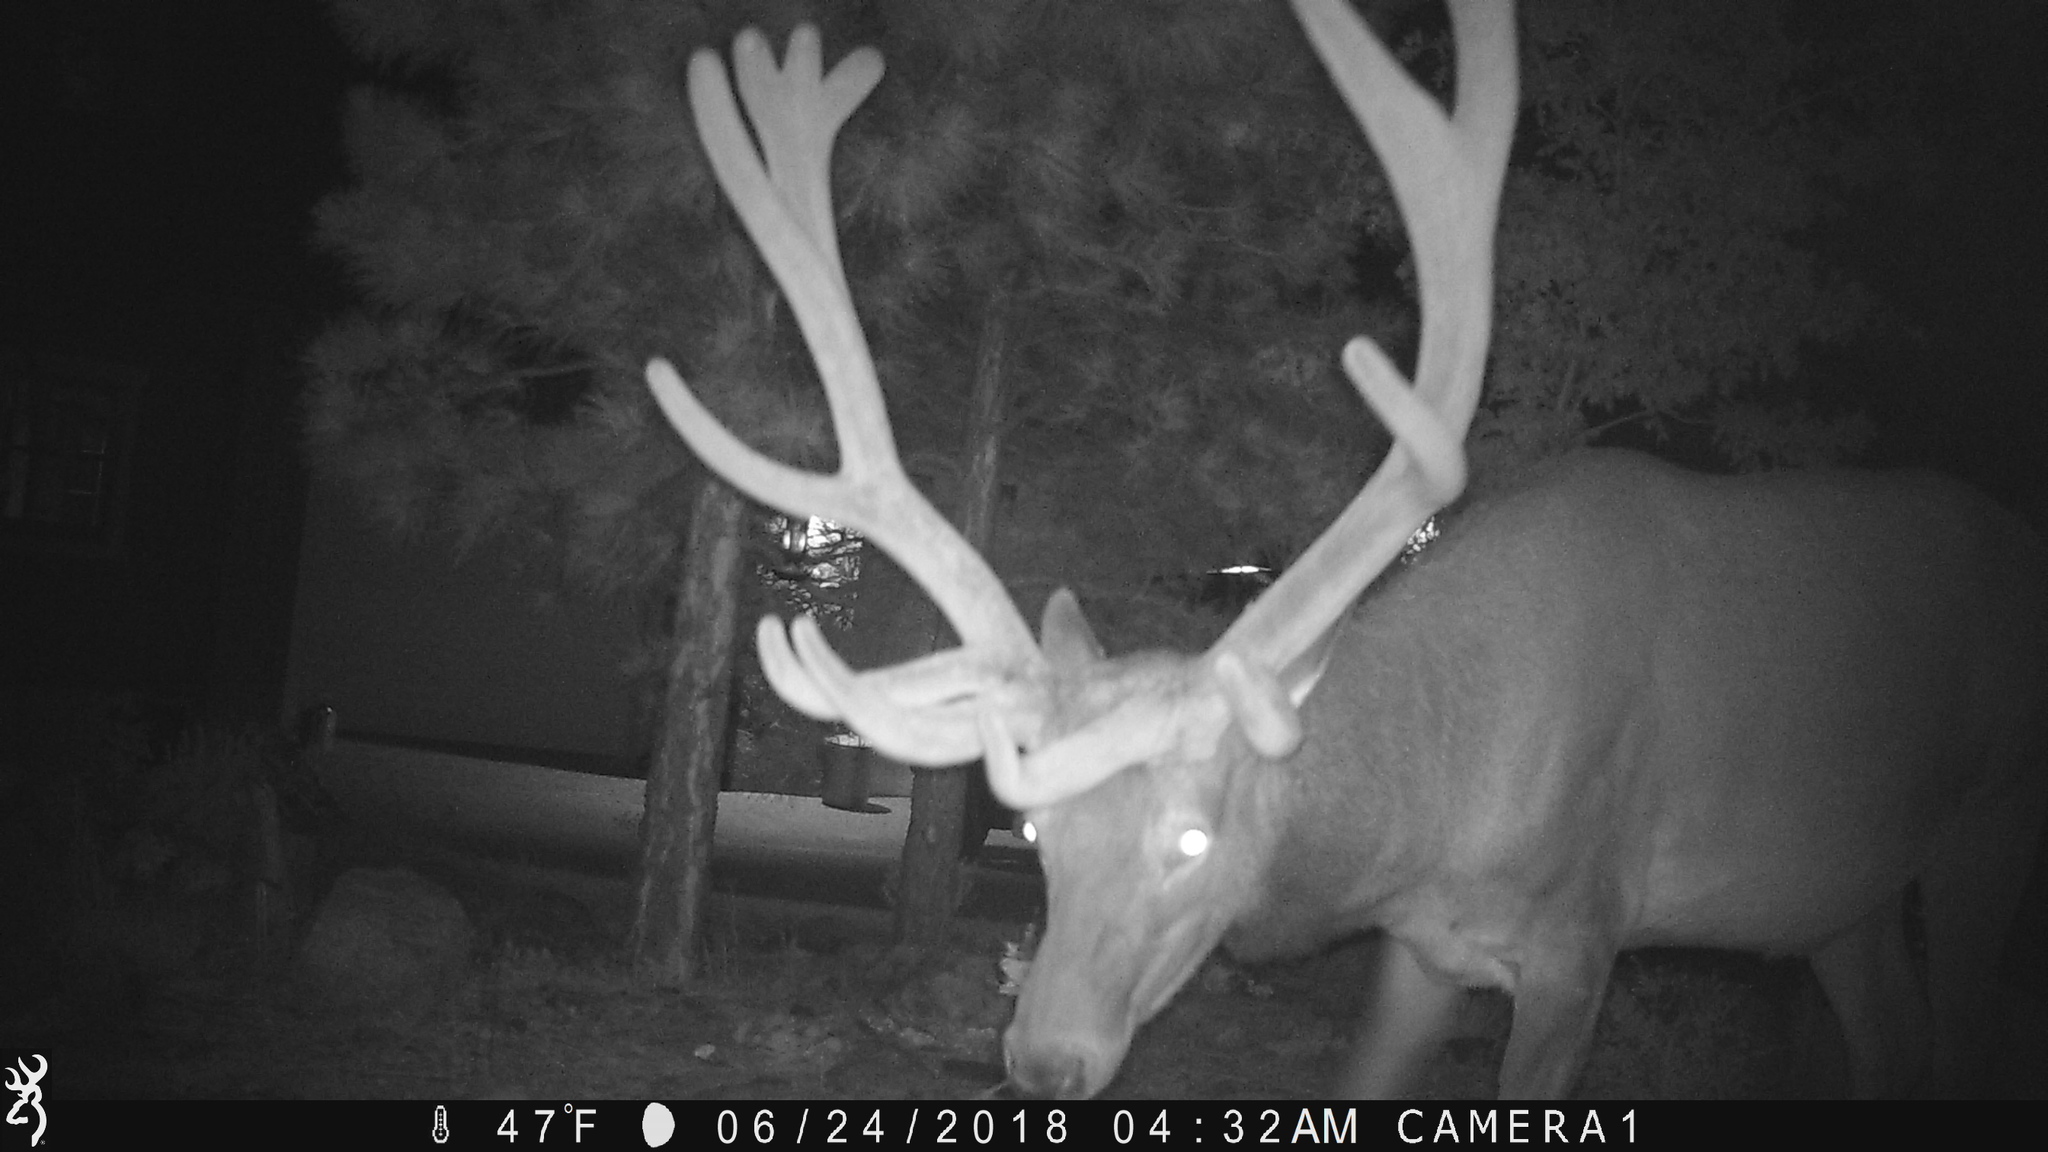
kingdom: Animalia
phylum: Chordata
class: Mammalia
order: Artiodactyla
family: Cervidae
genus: Cervus
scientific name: Cervus elaphus
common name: Red deer
